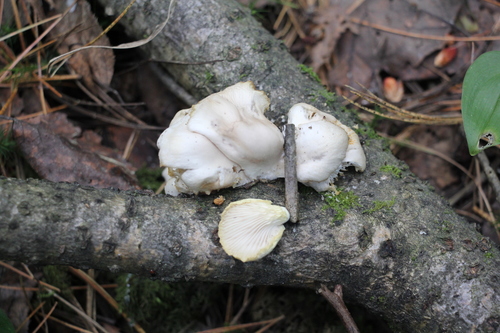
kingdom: Fungi
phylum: Basidiomycota
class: Agaricomycetes
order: Agaricales
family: Pleurotaceae
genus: Pleurotus
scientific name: Pleurotus pulmonarius
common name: Pale oyster
